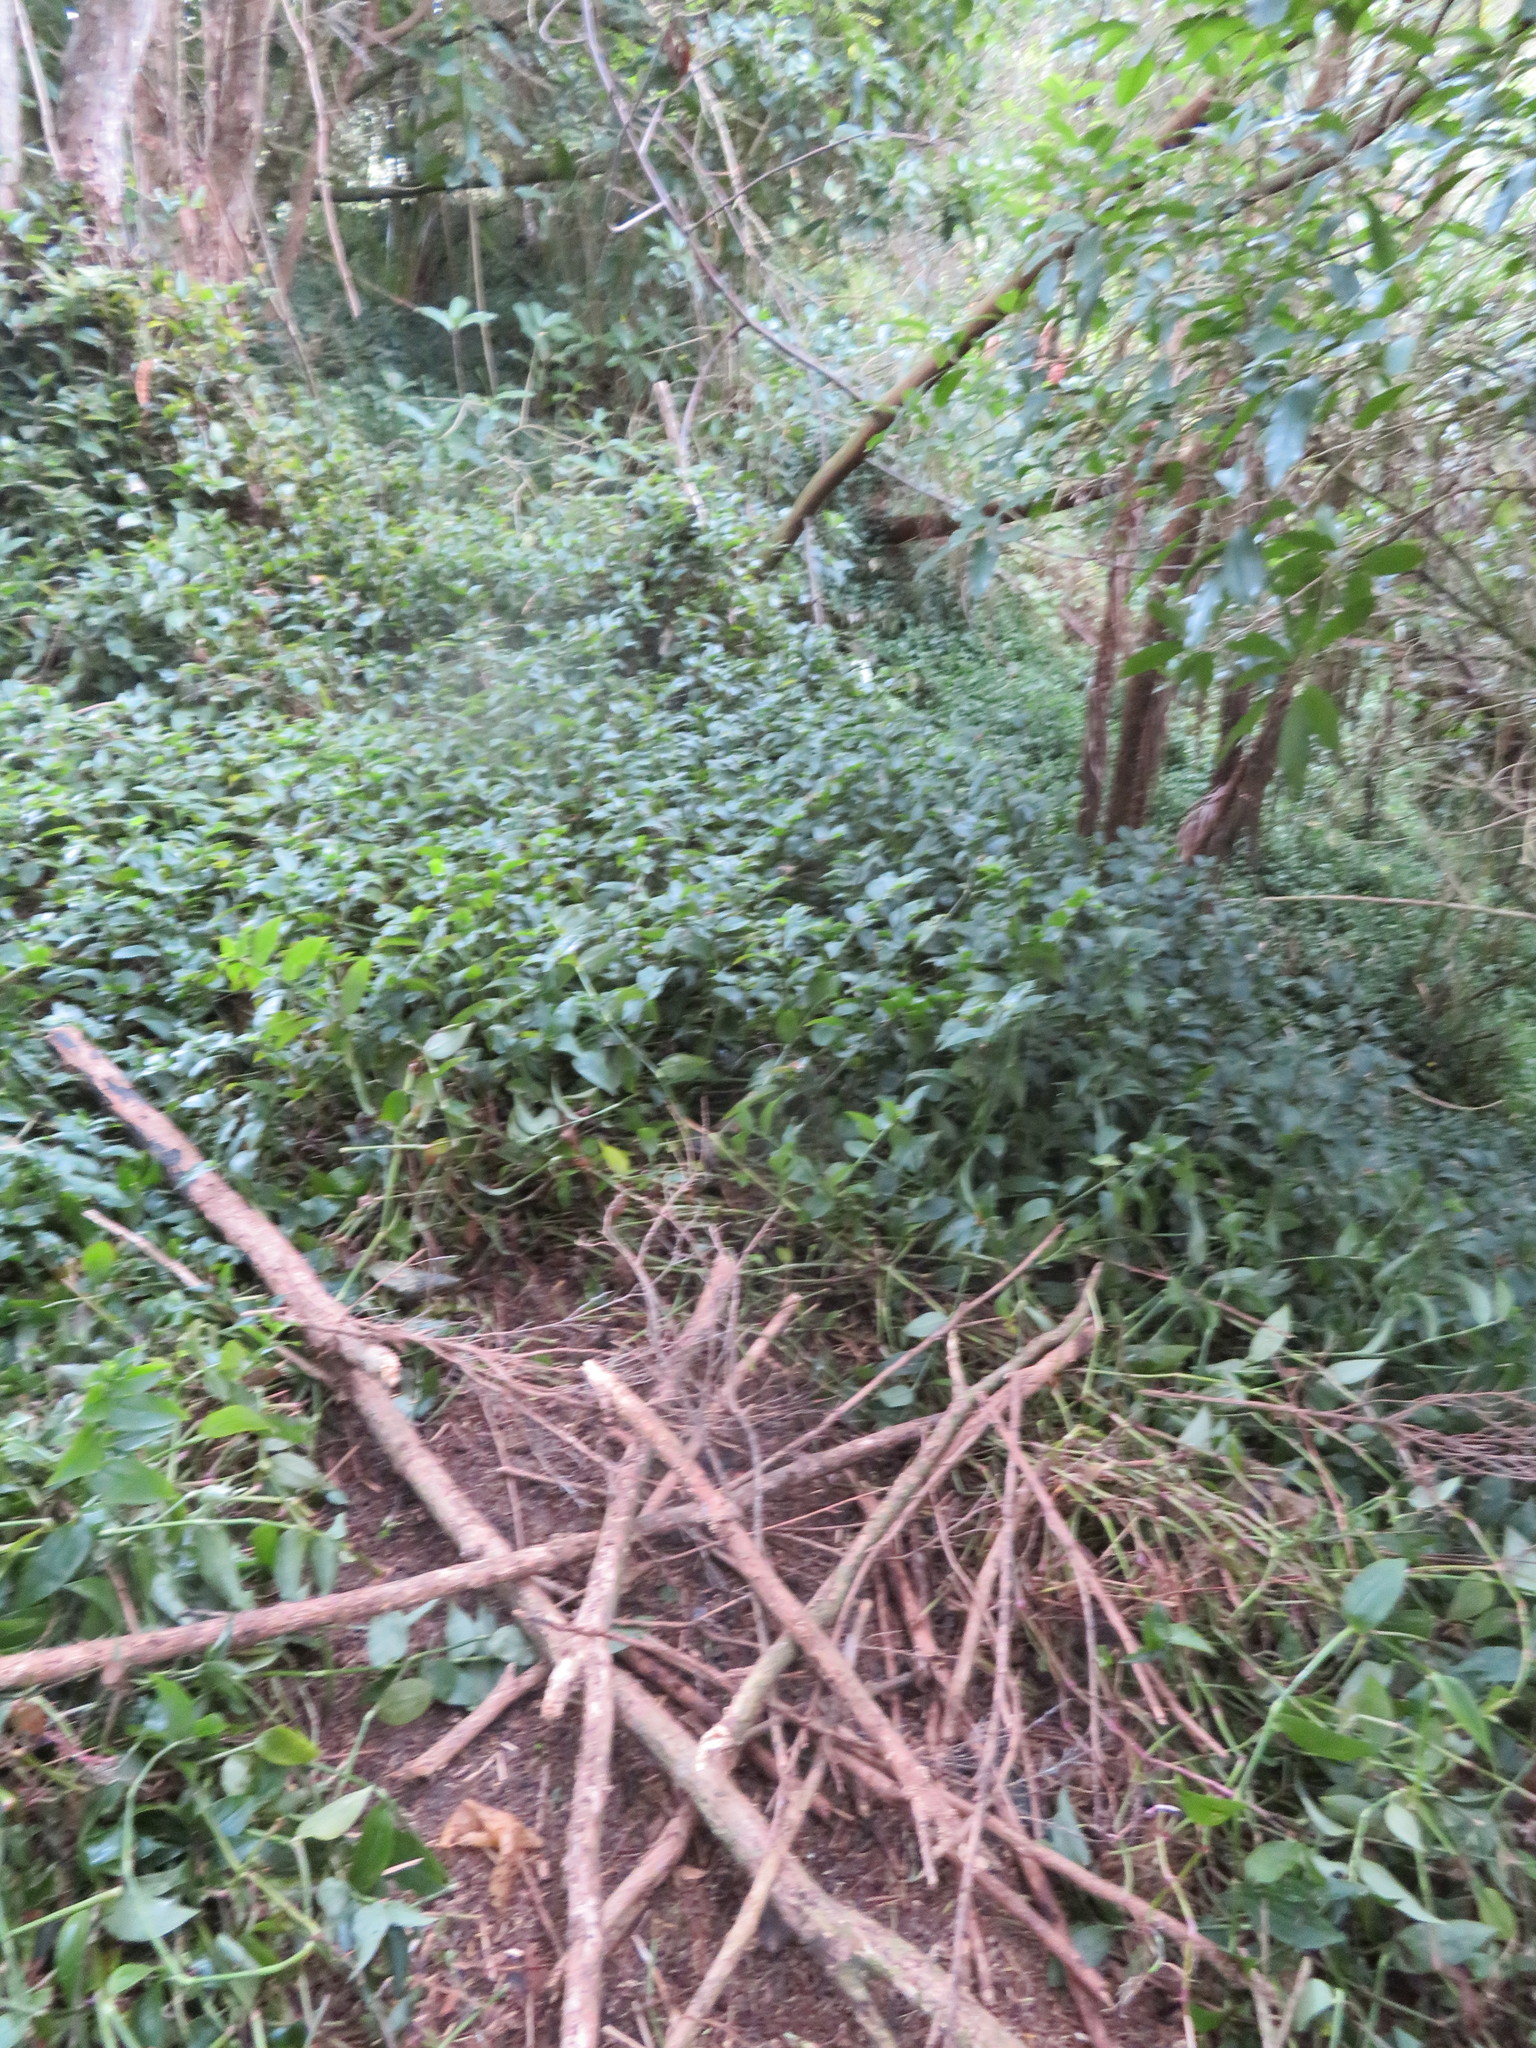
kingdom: Plantae
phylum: Tracheophyta
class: Liliopsida
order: Commelinales
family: Commelinaceae
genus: Tradescantia
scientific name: Tradescantia fluminensis
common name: Wandering-jew
